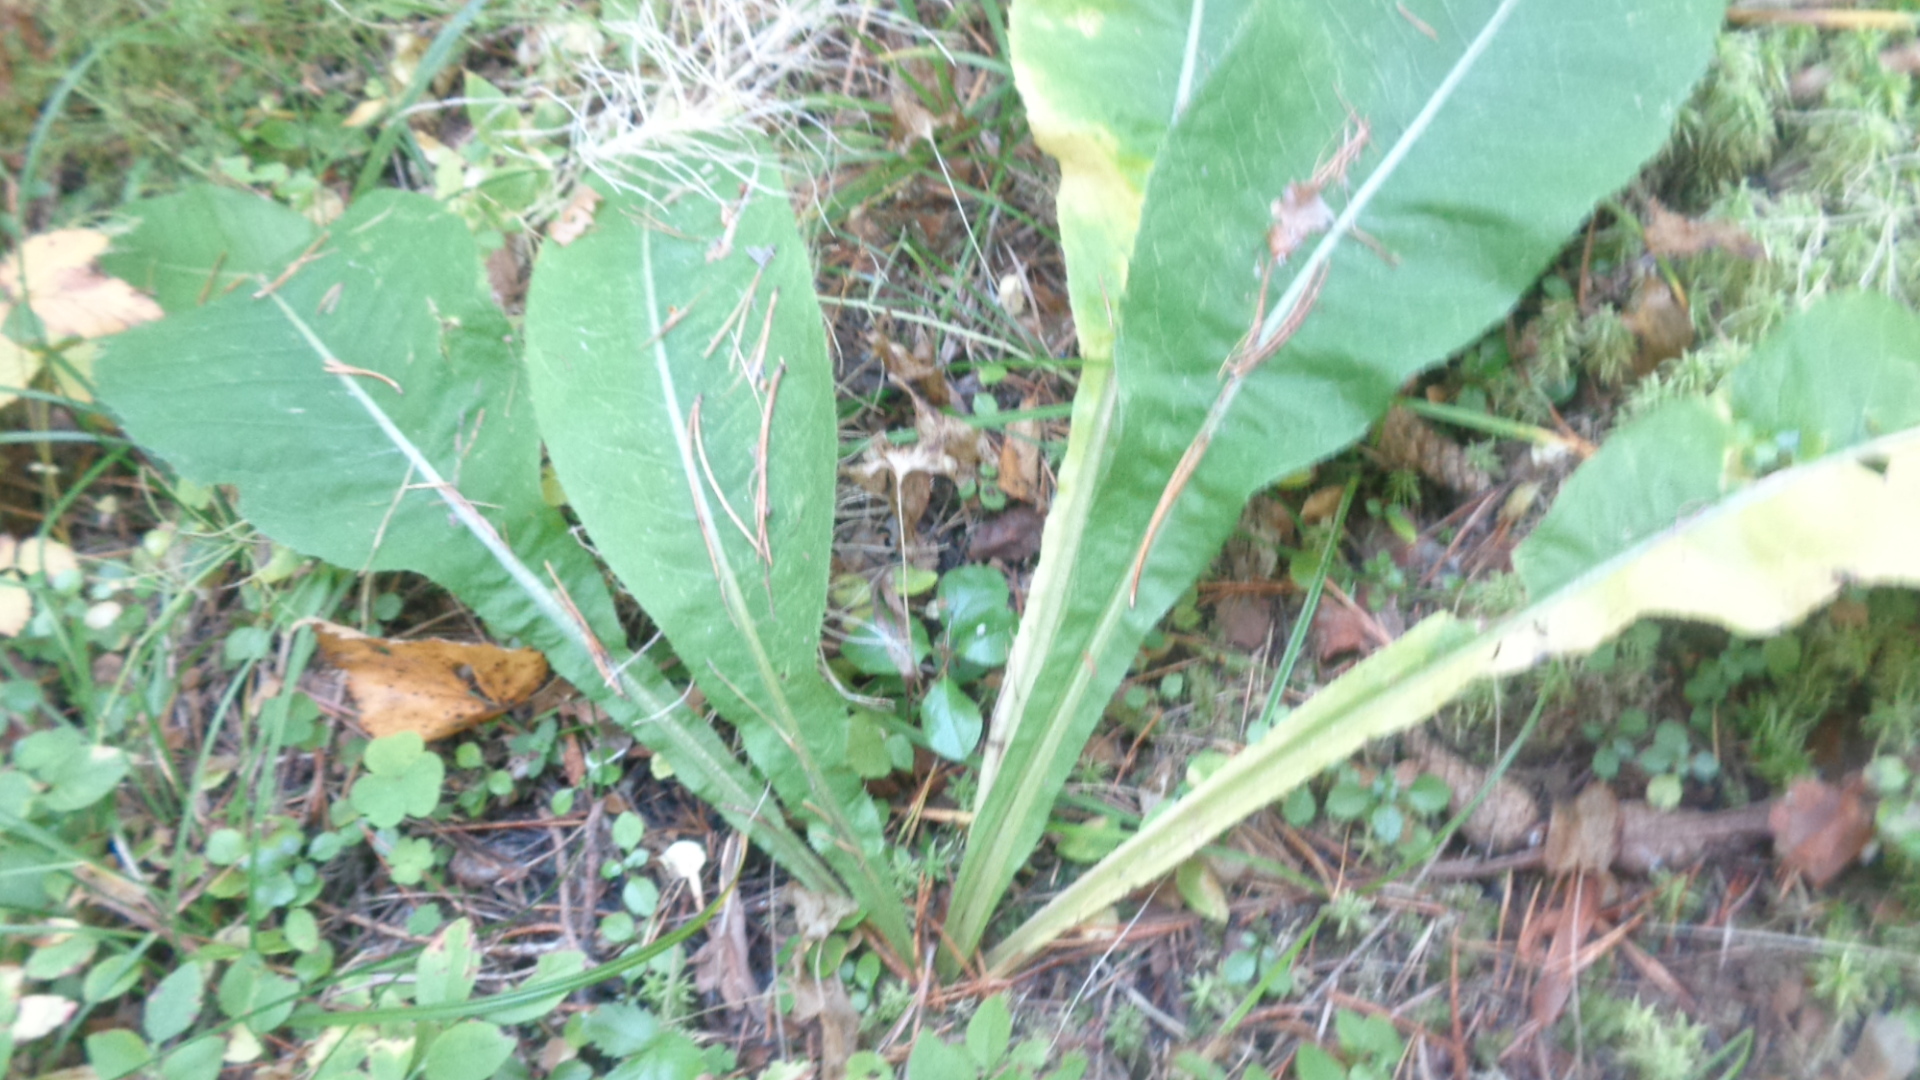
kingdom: Plantae
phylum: Tracheophyta
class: Magnoliopsida
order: Asterales
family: Asteraceae
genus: Cirsium
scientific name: Cirsium heterophyllum
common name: Melancholy thistle
